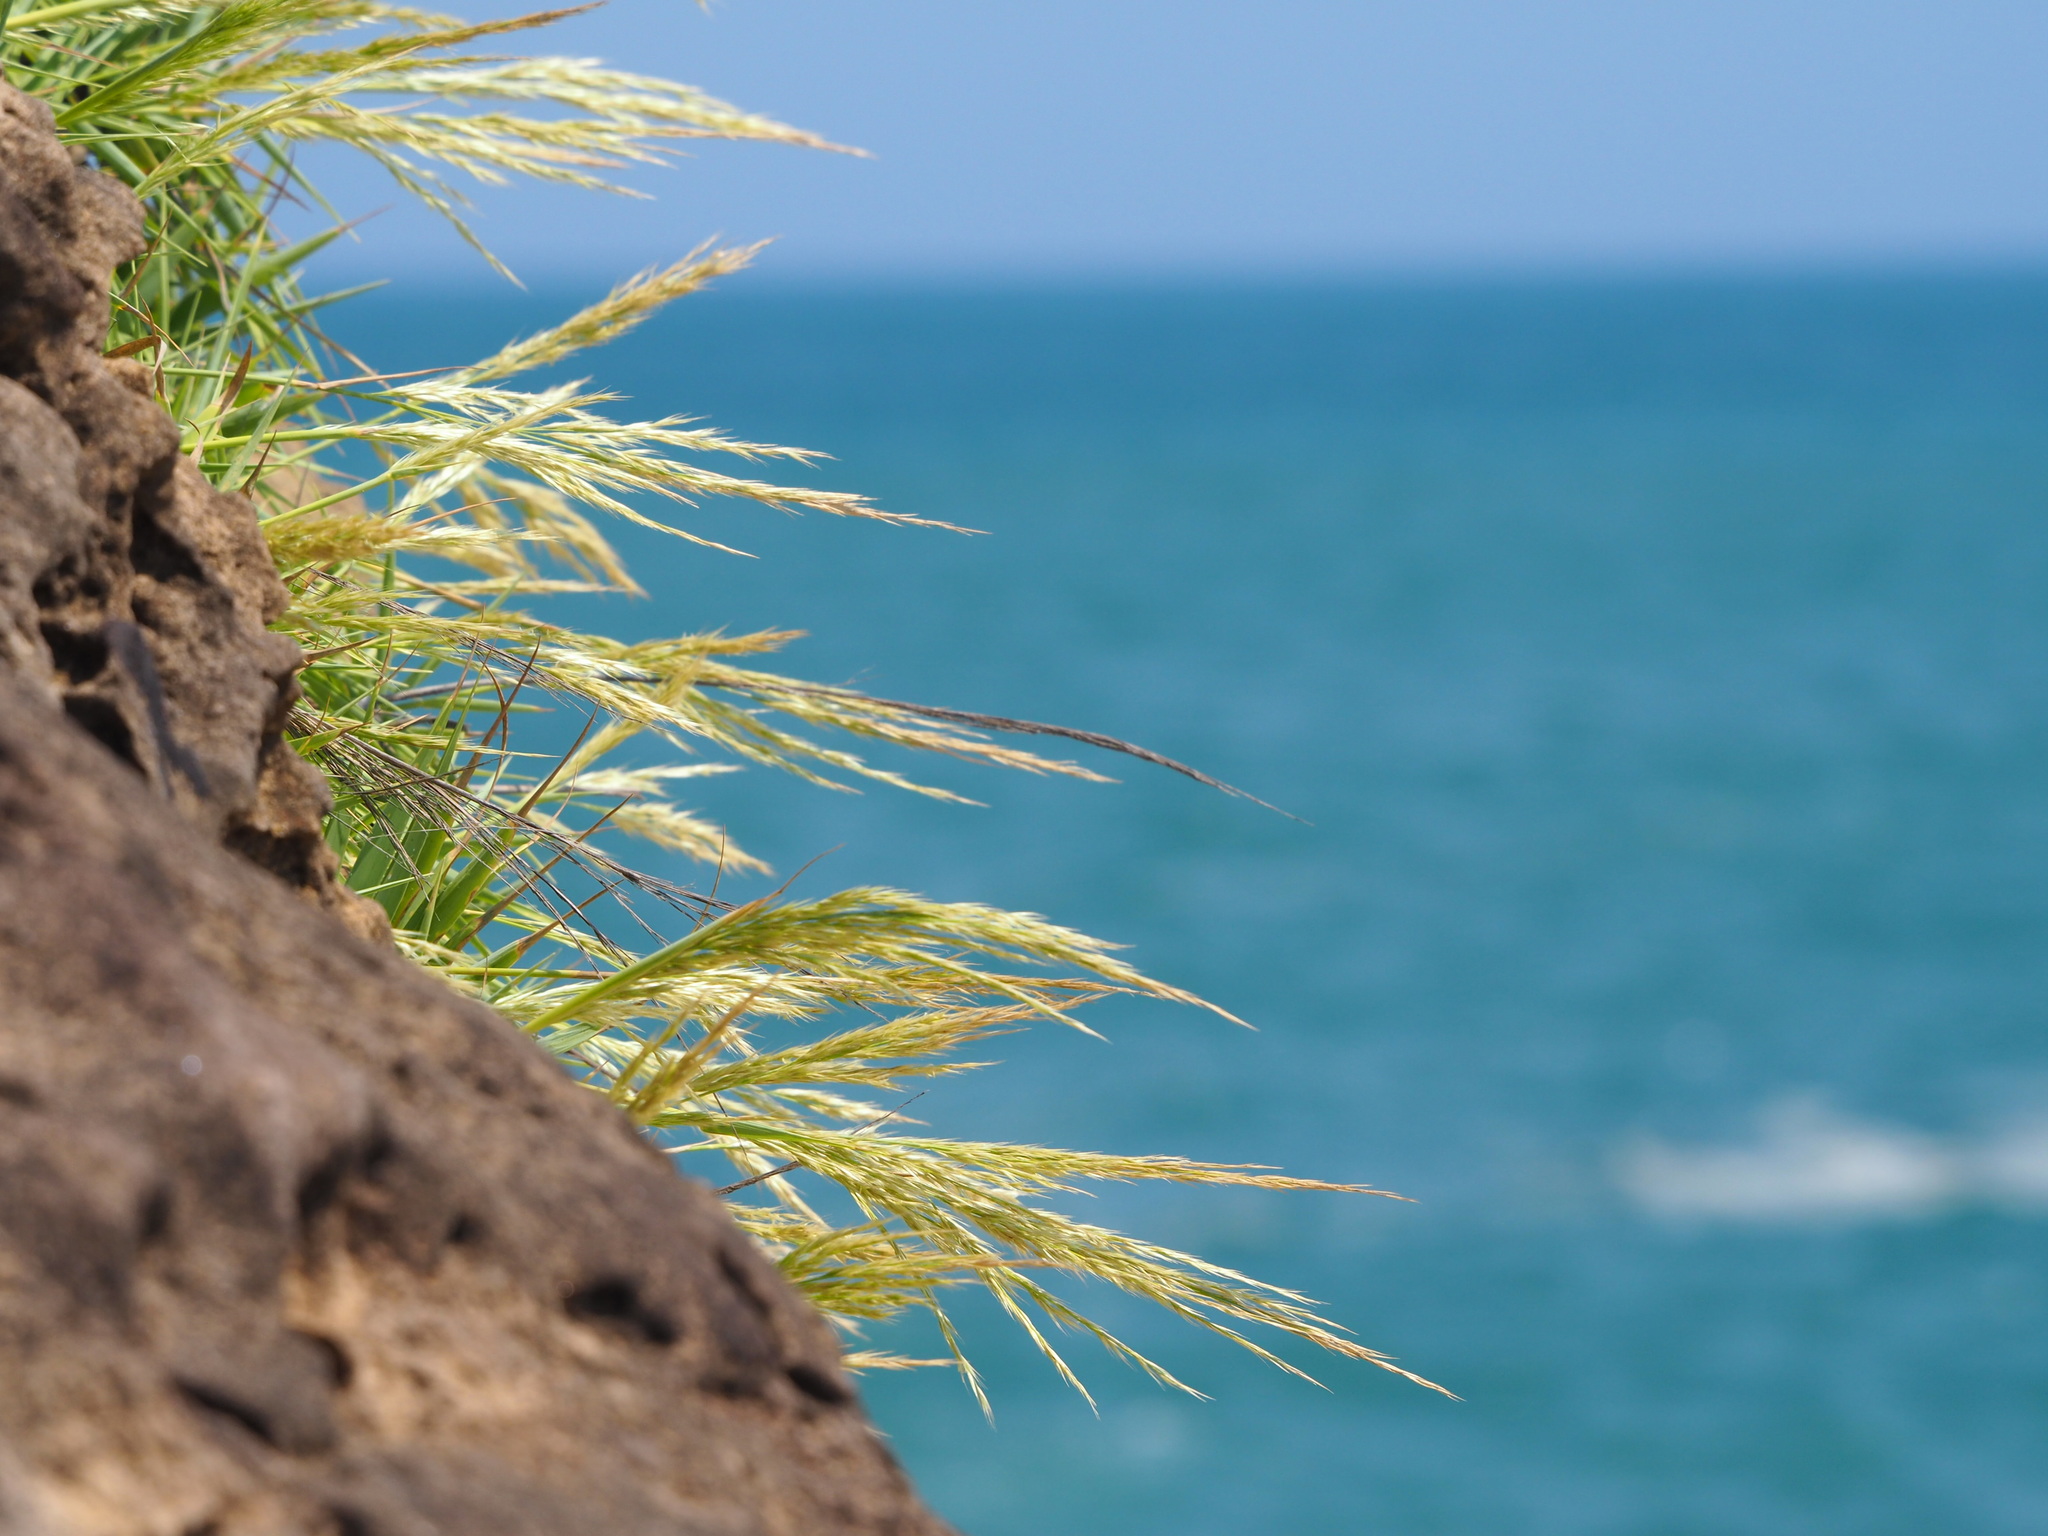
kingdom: Plantae
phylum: Tracheophyta
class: Liliopsida
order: Poales
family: Poaceae
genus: Arundo
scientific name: Arundo formosana
